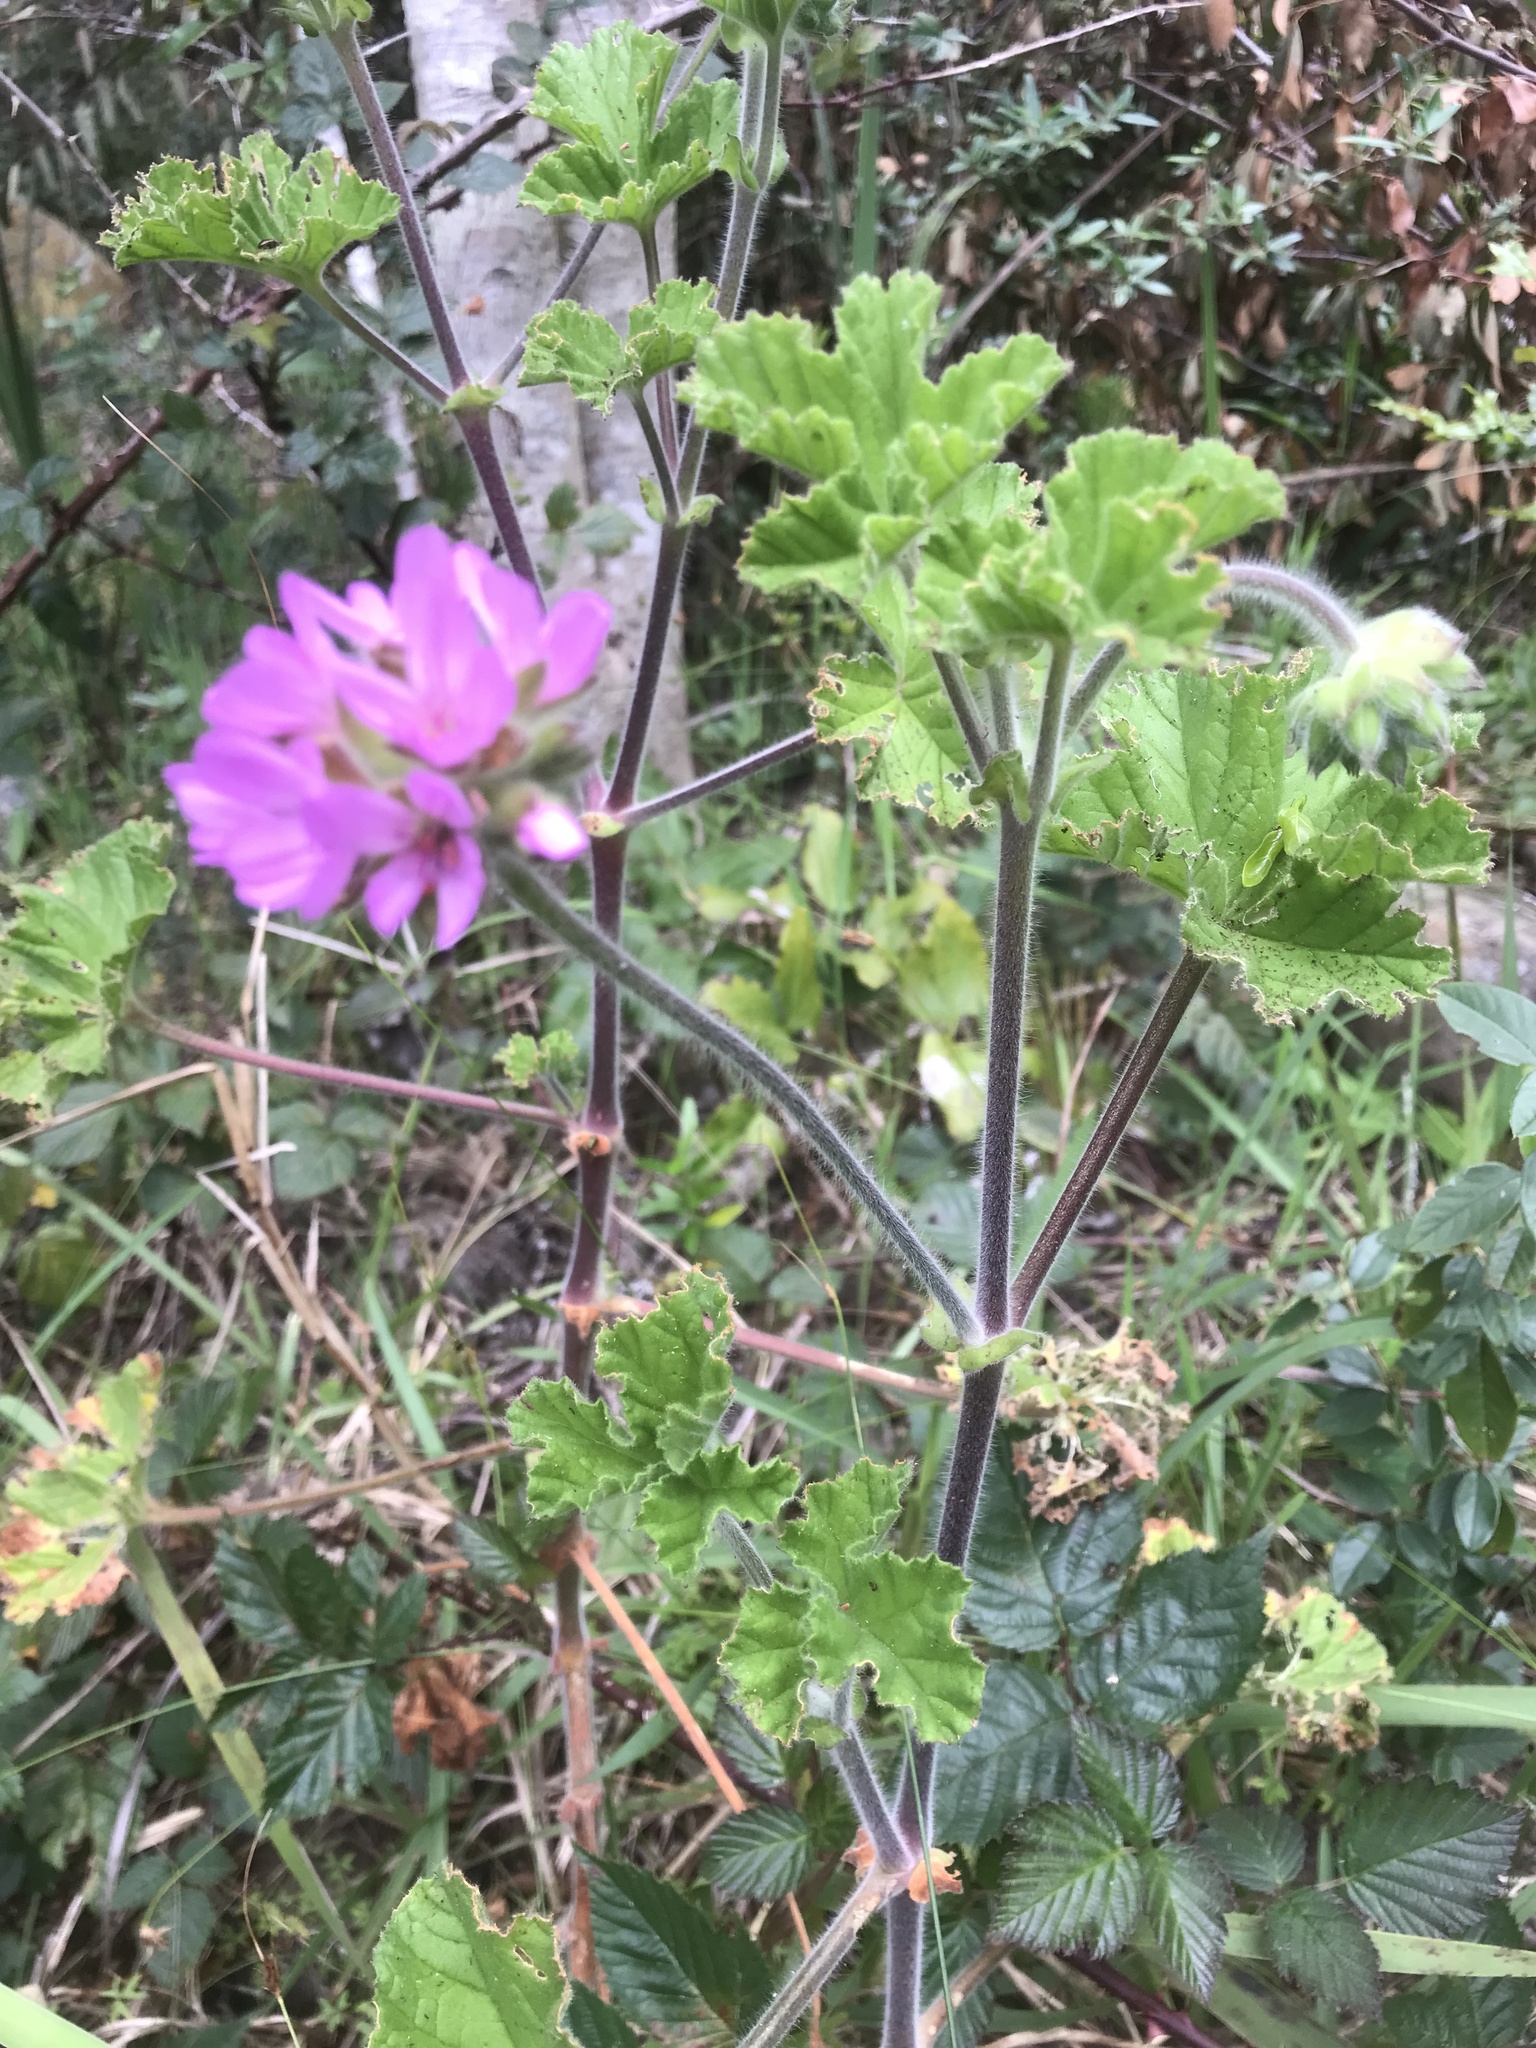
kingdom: Plantae
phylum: Tracheophyta
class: Magnoliopsida
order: Geraniales
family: Geraniaceae
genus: Pelargonium
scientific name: Pelargonium vitifolium
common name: Grapeleaf geranium
